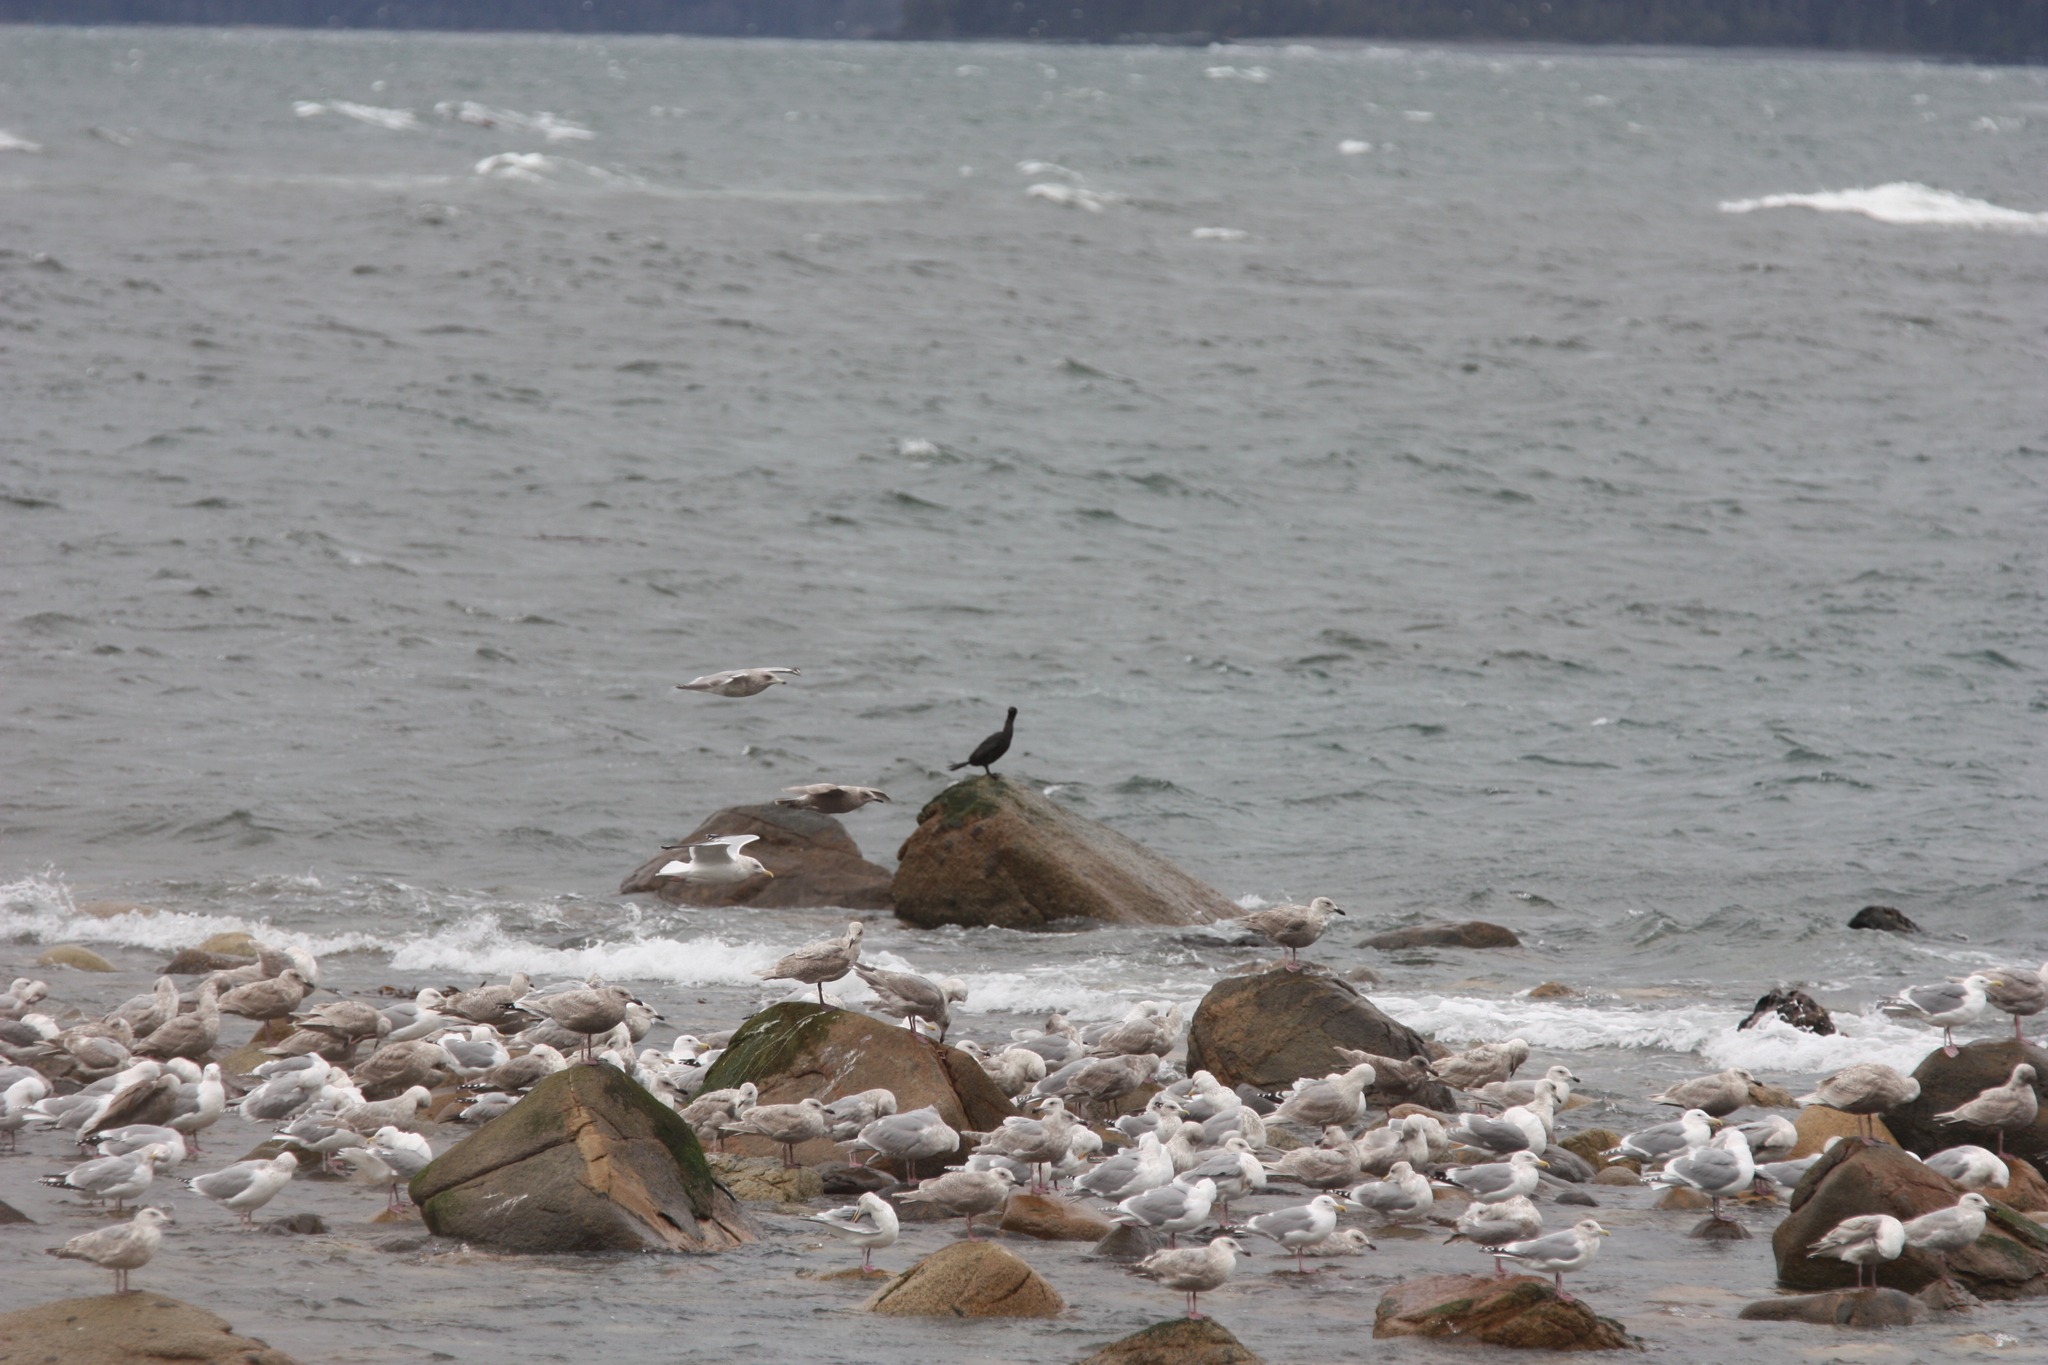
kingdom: Animalia
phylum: Chordata
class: Aves
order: Charadriiformes
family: Laridae
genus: Larus
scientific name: Larus argentatus
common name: Herring gull
